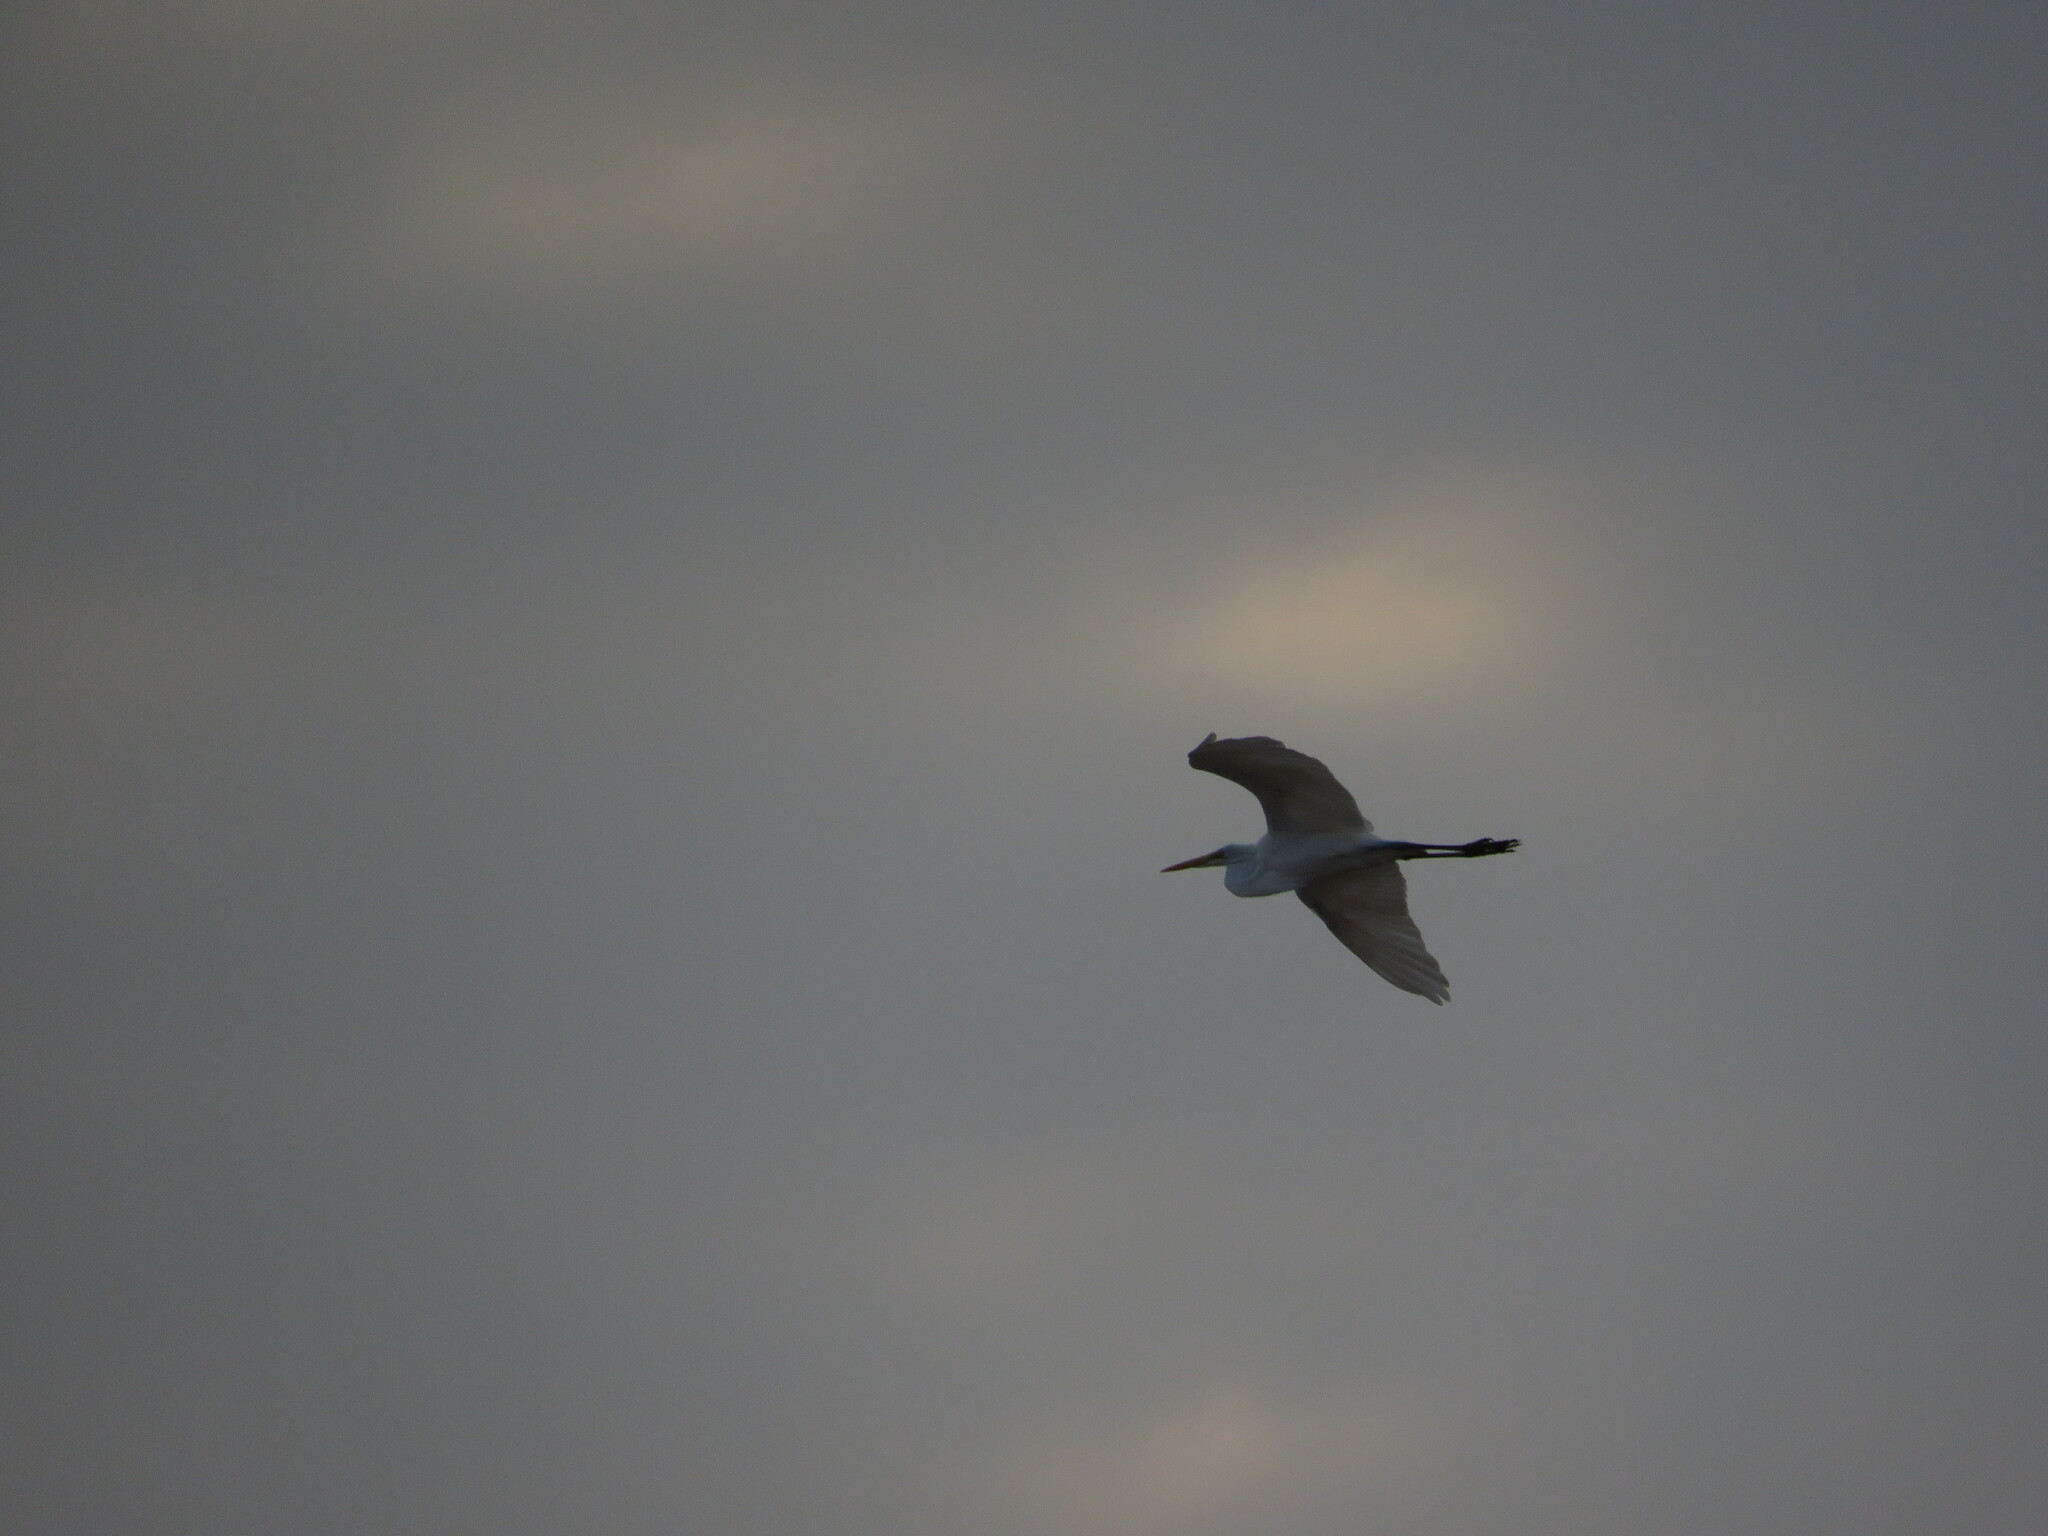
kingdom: Animalia
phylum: Chordata
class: Aves
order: Pelecaniformes
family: Ardeidae
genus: Ardea
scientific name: Ardea alba
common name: Great egret
